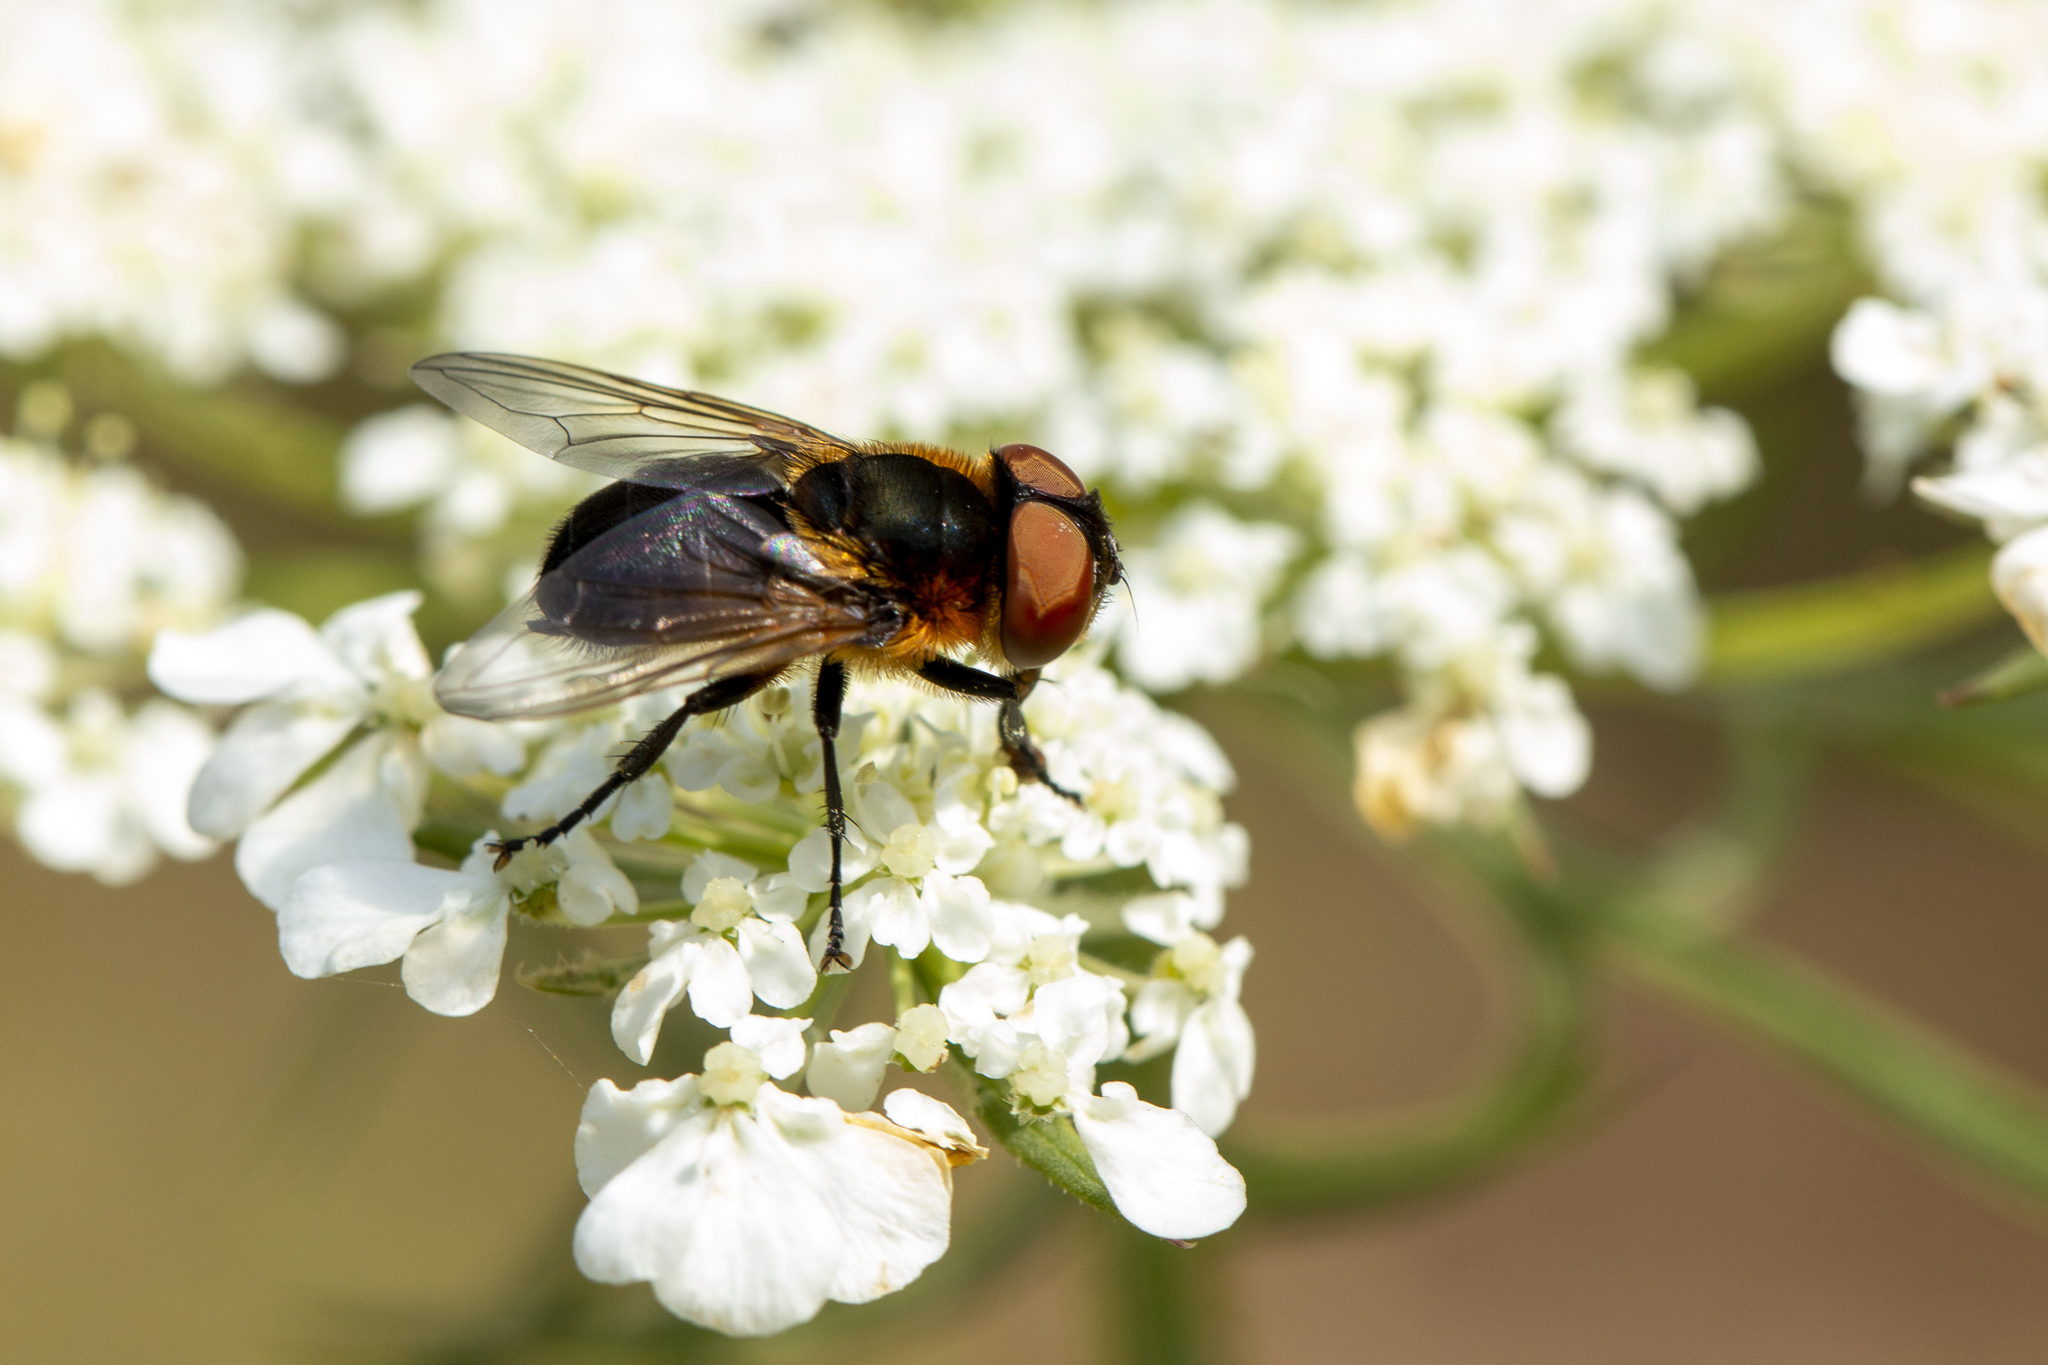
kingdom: Animalia
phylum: Arthropoda
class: Insecta
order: Diptera
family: Tachinidae
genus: Phasia
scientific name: Phasia hemiptera
